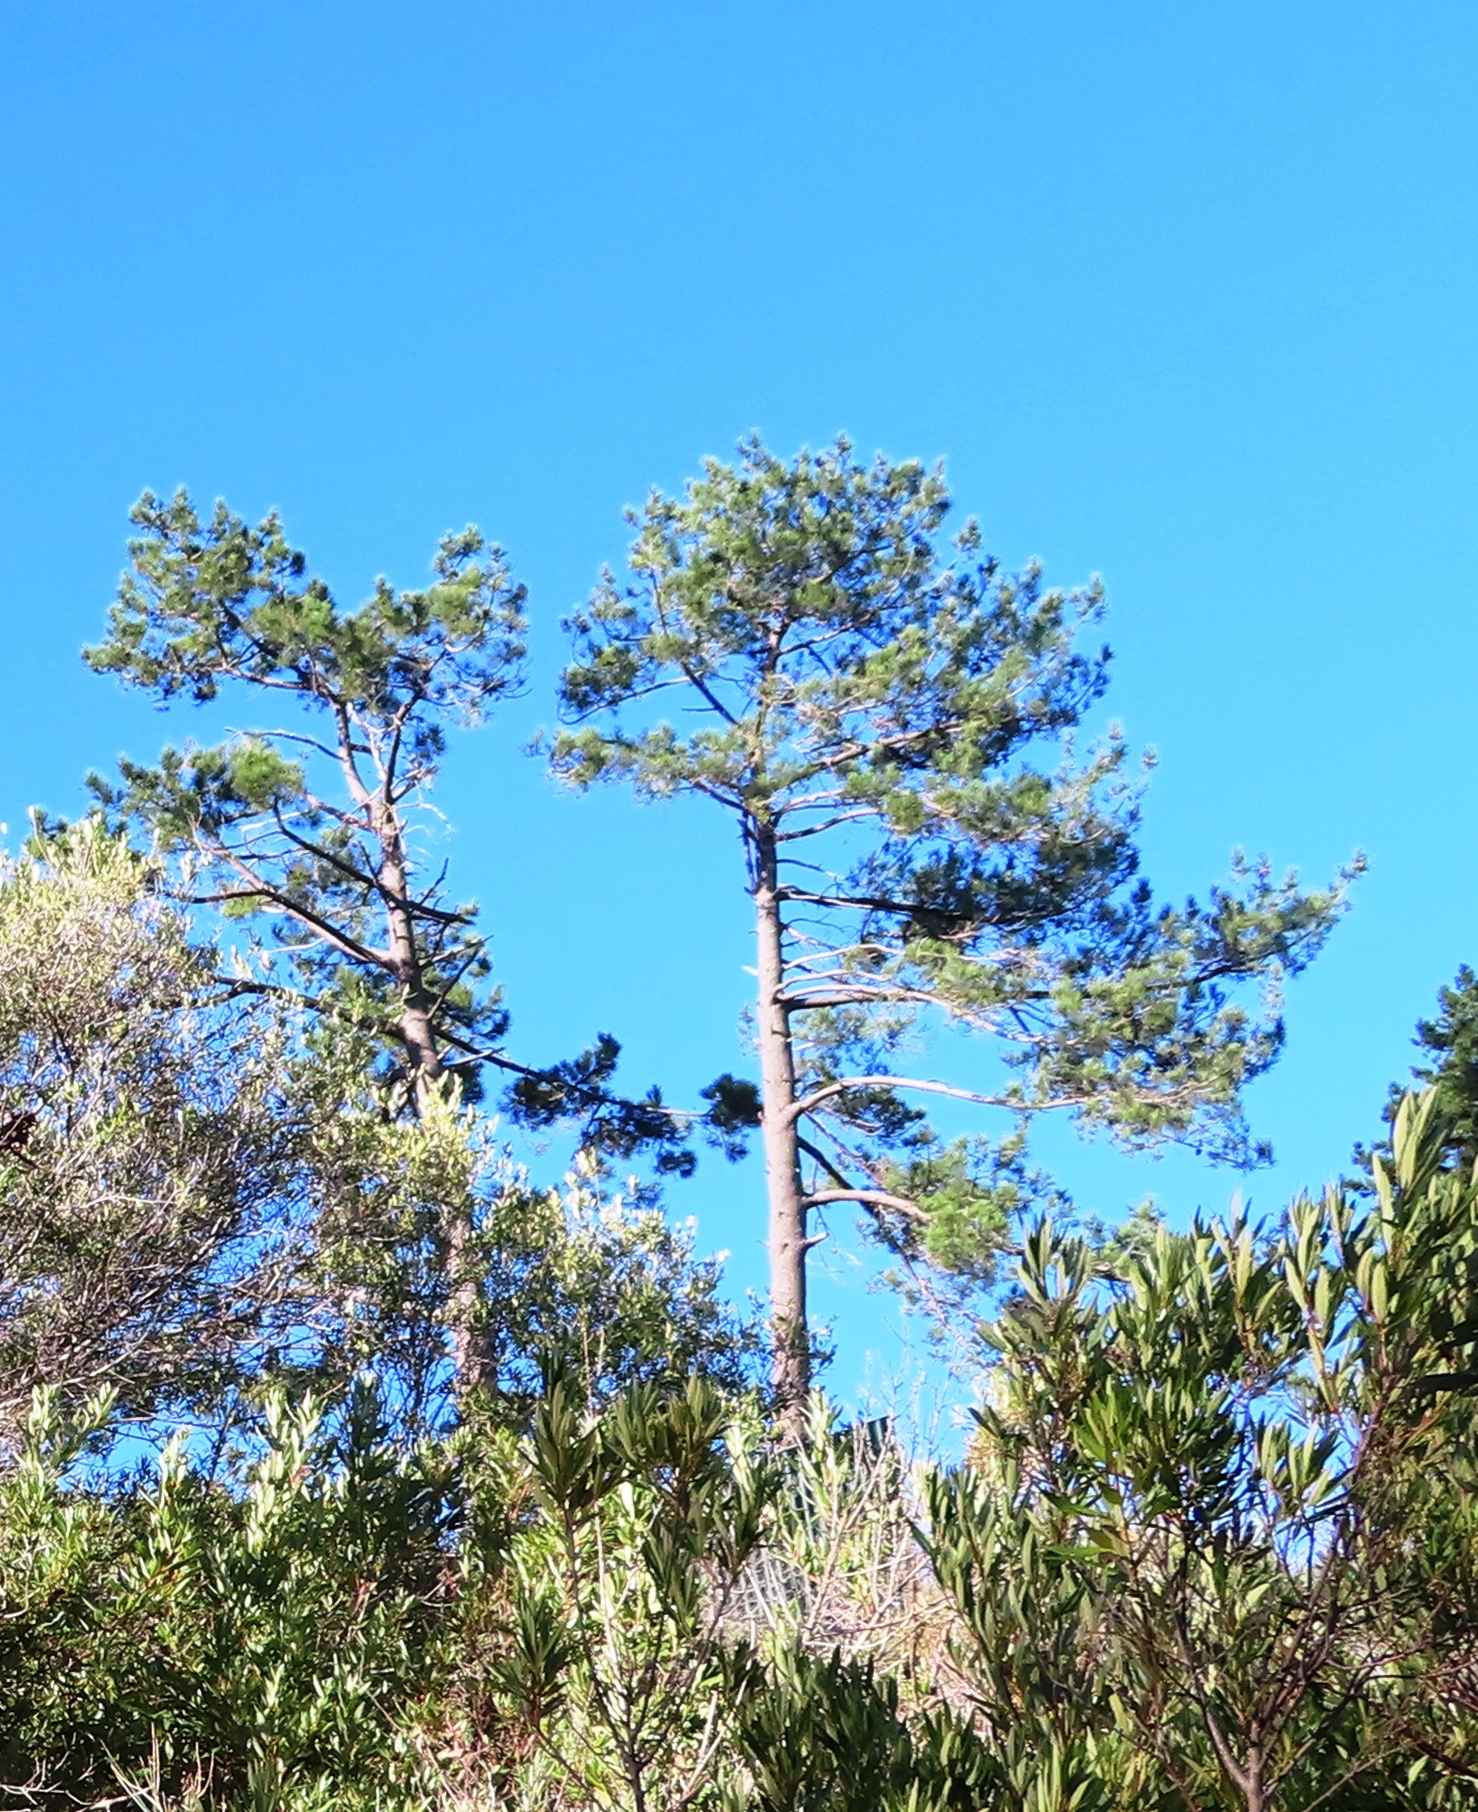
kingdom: Plantae
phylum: Tracheophyta
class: Pinopsida
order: Pinales
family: Pinaceae
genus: Pinus
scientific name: Pinus pinaster
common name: Maritime pine
